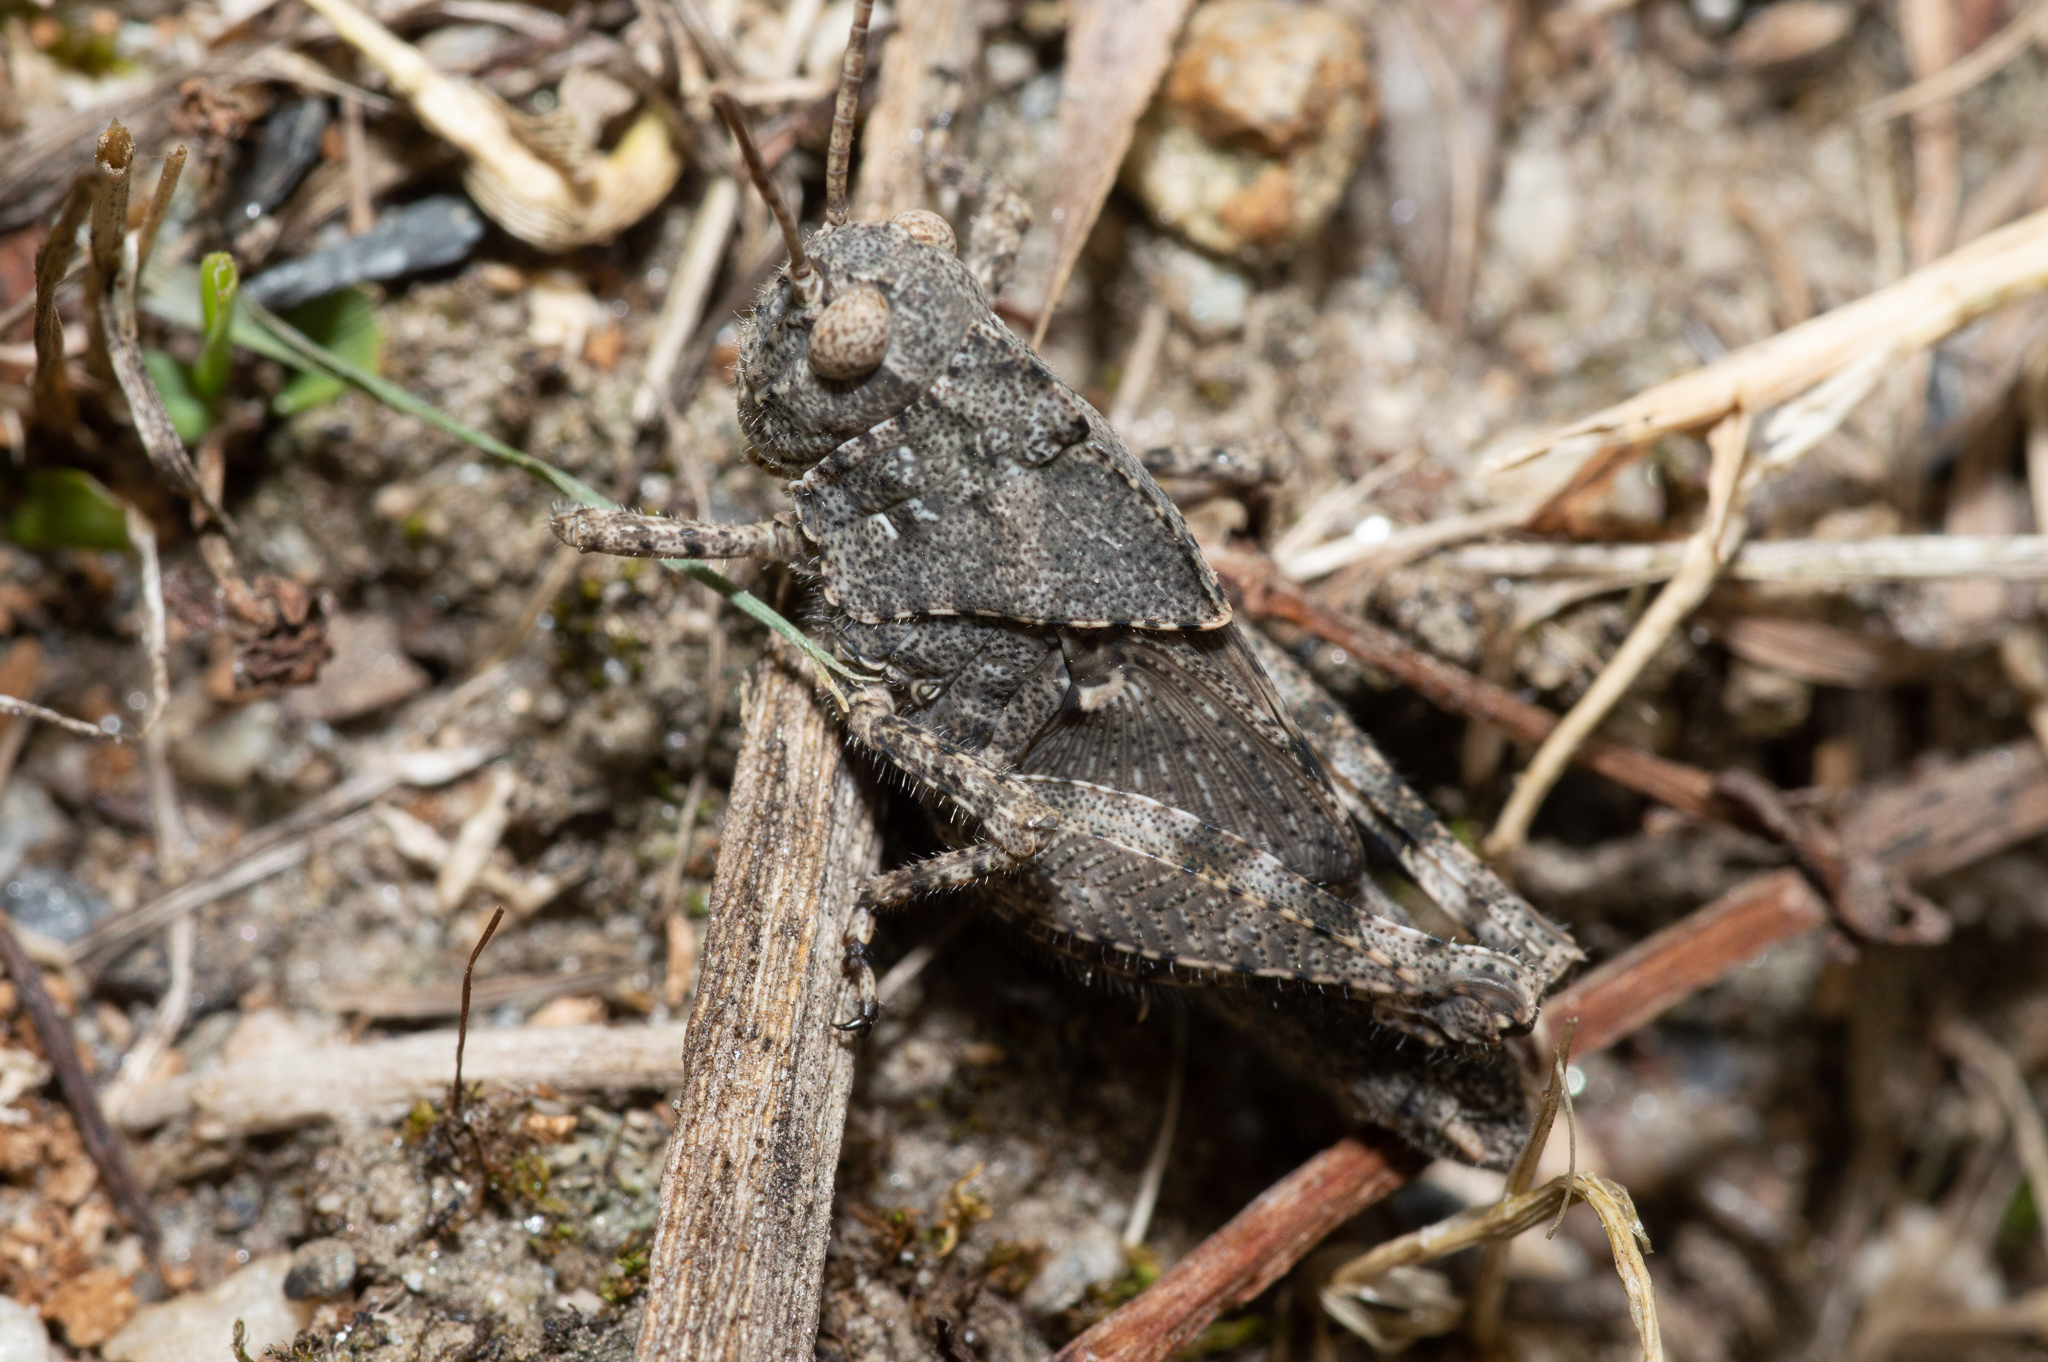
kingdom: Animalia
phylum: Arthropoda
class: Insecta
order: Orthoptera
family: Acrididae
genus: Dissosteira
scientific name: Dissosteira carolina
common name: Carolina grasshopper
